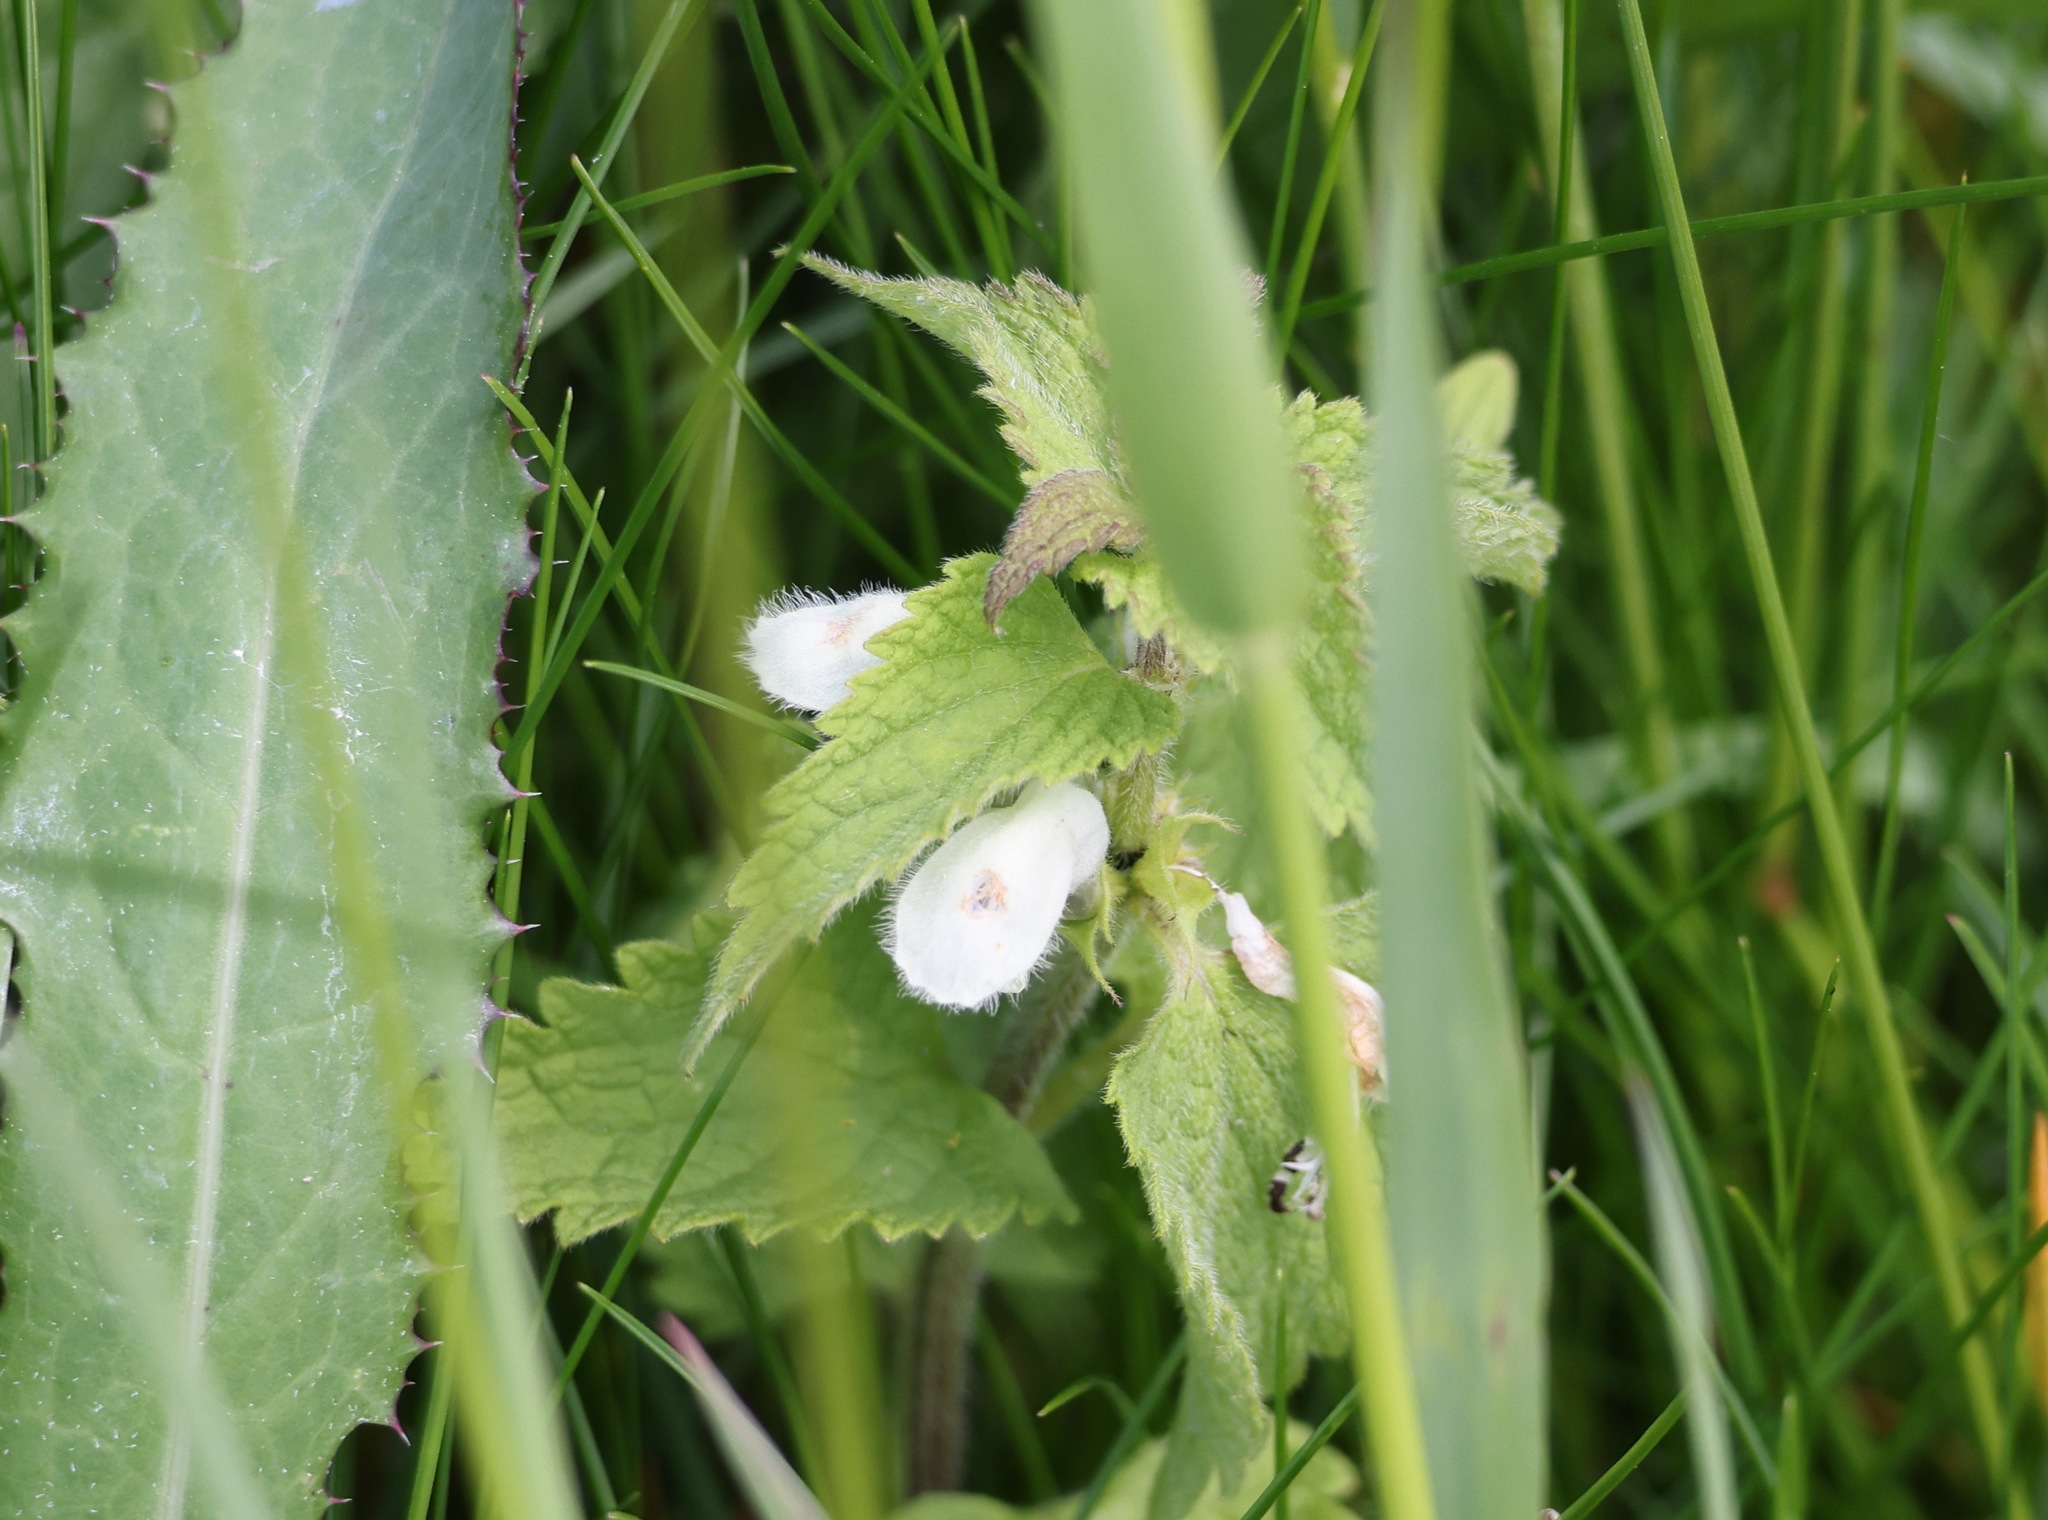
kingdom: Plantae
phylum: Tracheophyta
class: Magnoliopsida
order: Lamiales
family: Lamiaceae
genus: Lamium
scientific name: Lamium album
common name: White dead-nettle
